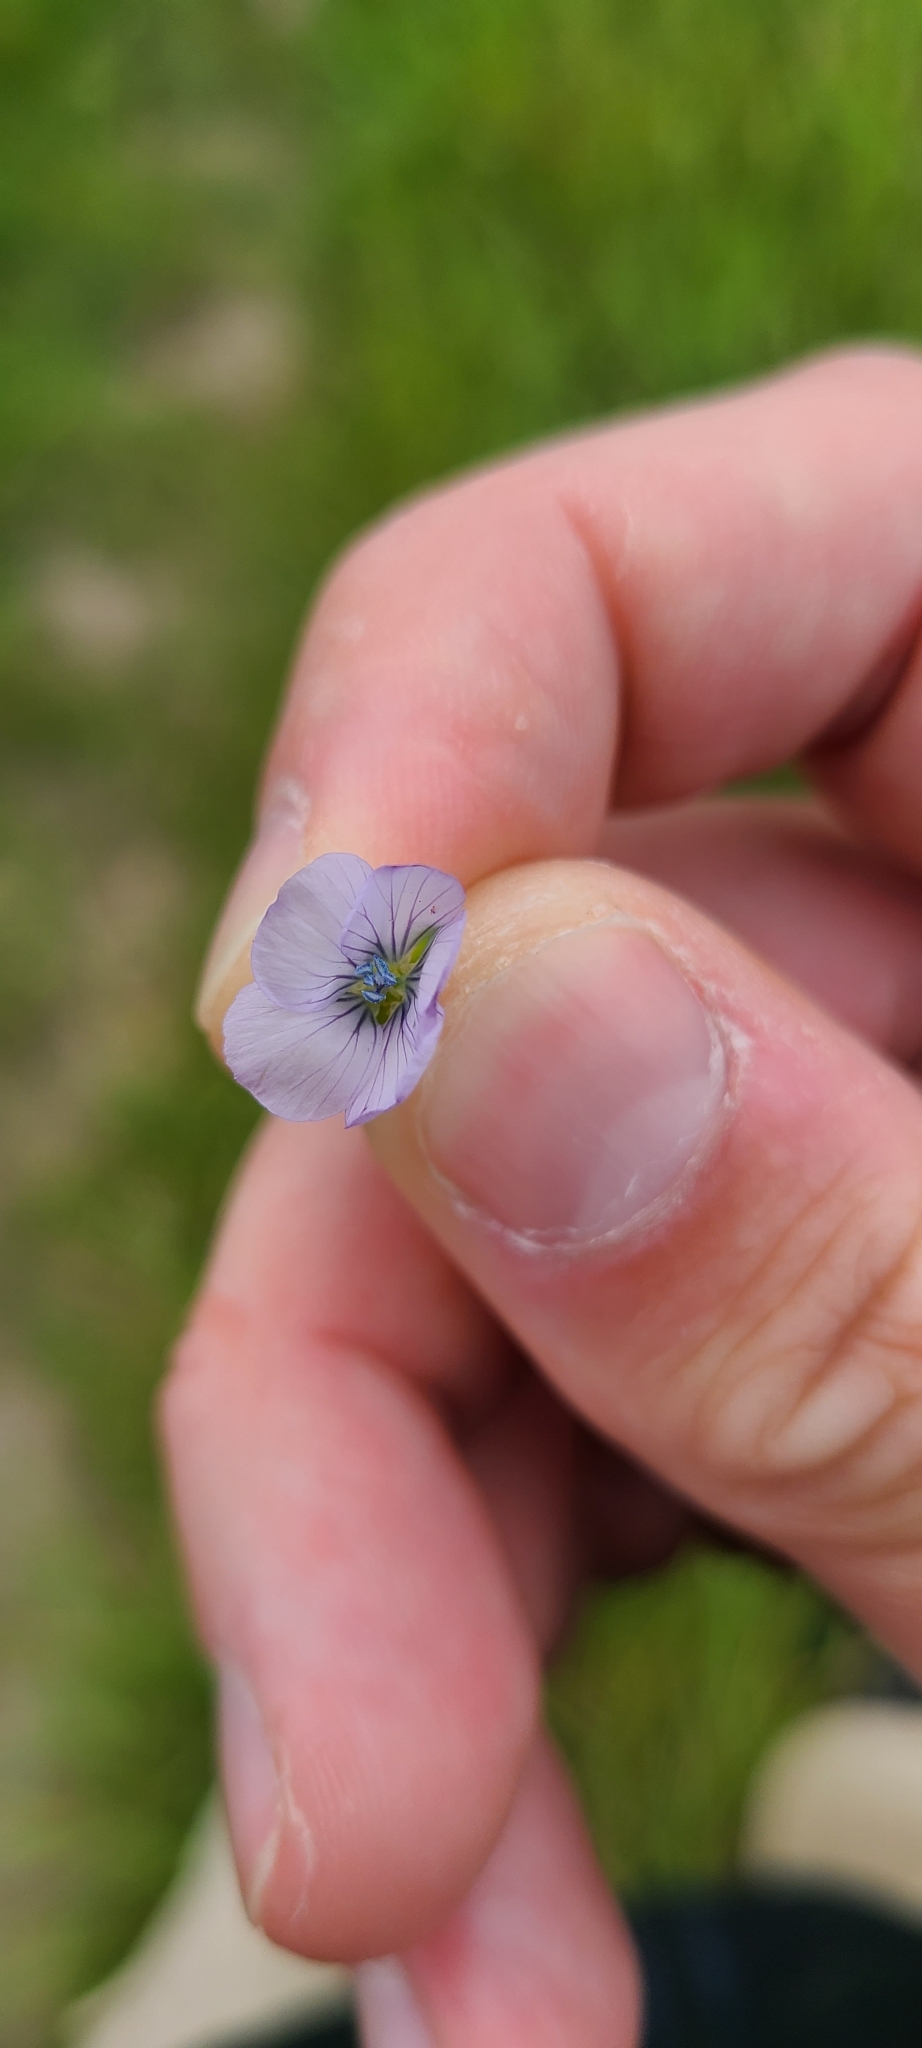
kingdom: Plantae
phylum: Tracheophyta
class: Magnoliopsida
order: Malpighiales
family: Linaceae
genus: Linum
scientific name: Linum bienne
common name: Pale flax
